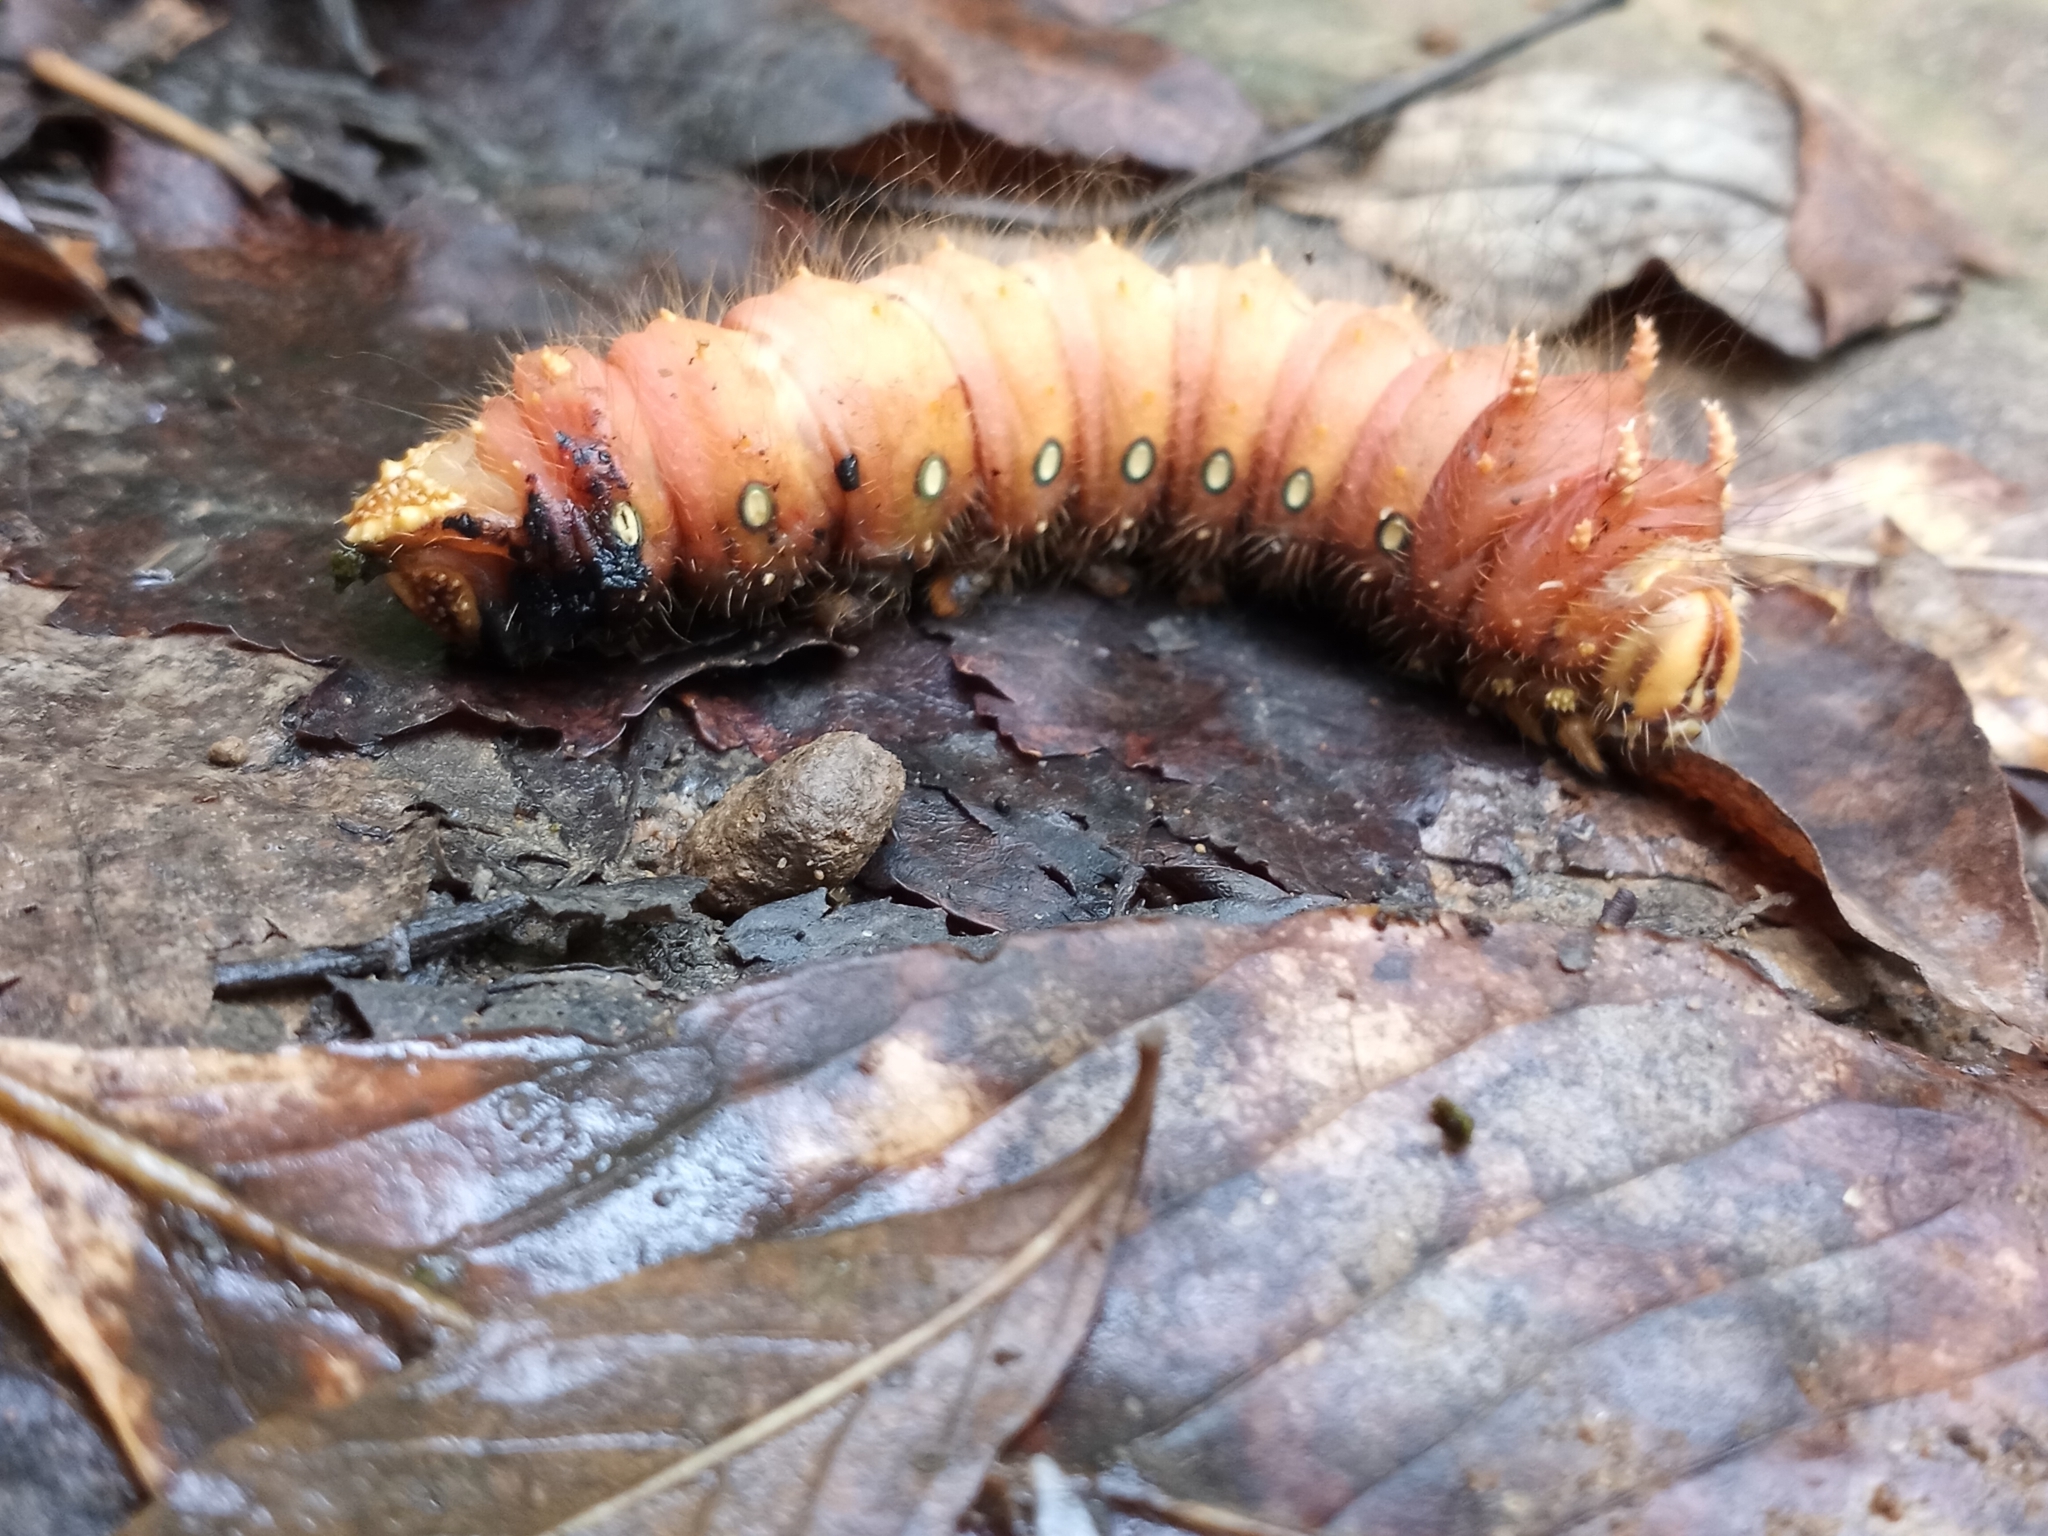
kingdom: Animalia
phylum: Arthropoda
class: Insecta
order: Lepidoptera
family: Saturniidae
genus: Eacles
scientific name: Eacles imperialis
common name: Imperial moth
